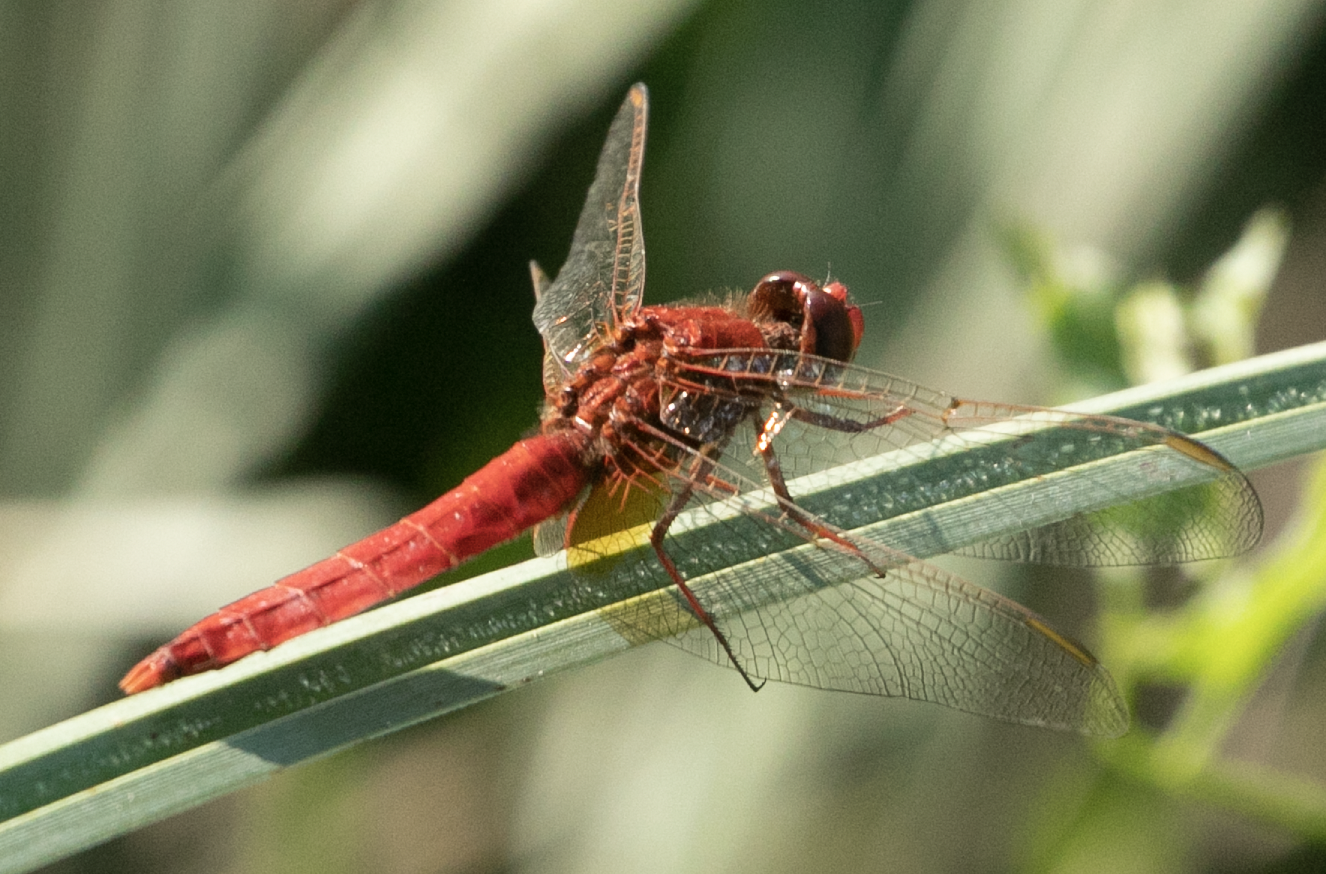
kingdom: Animalia
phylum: Arthropoda
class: Insecta
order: Odonata
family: Libellulidae
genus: Crocothemis
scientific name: Crocothemis erythraea
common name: Scarlet dragonfly
